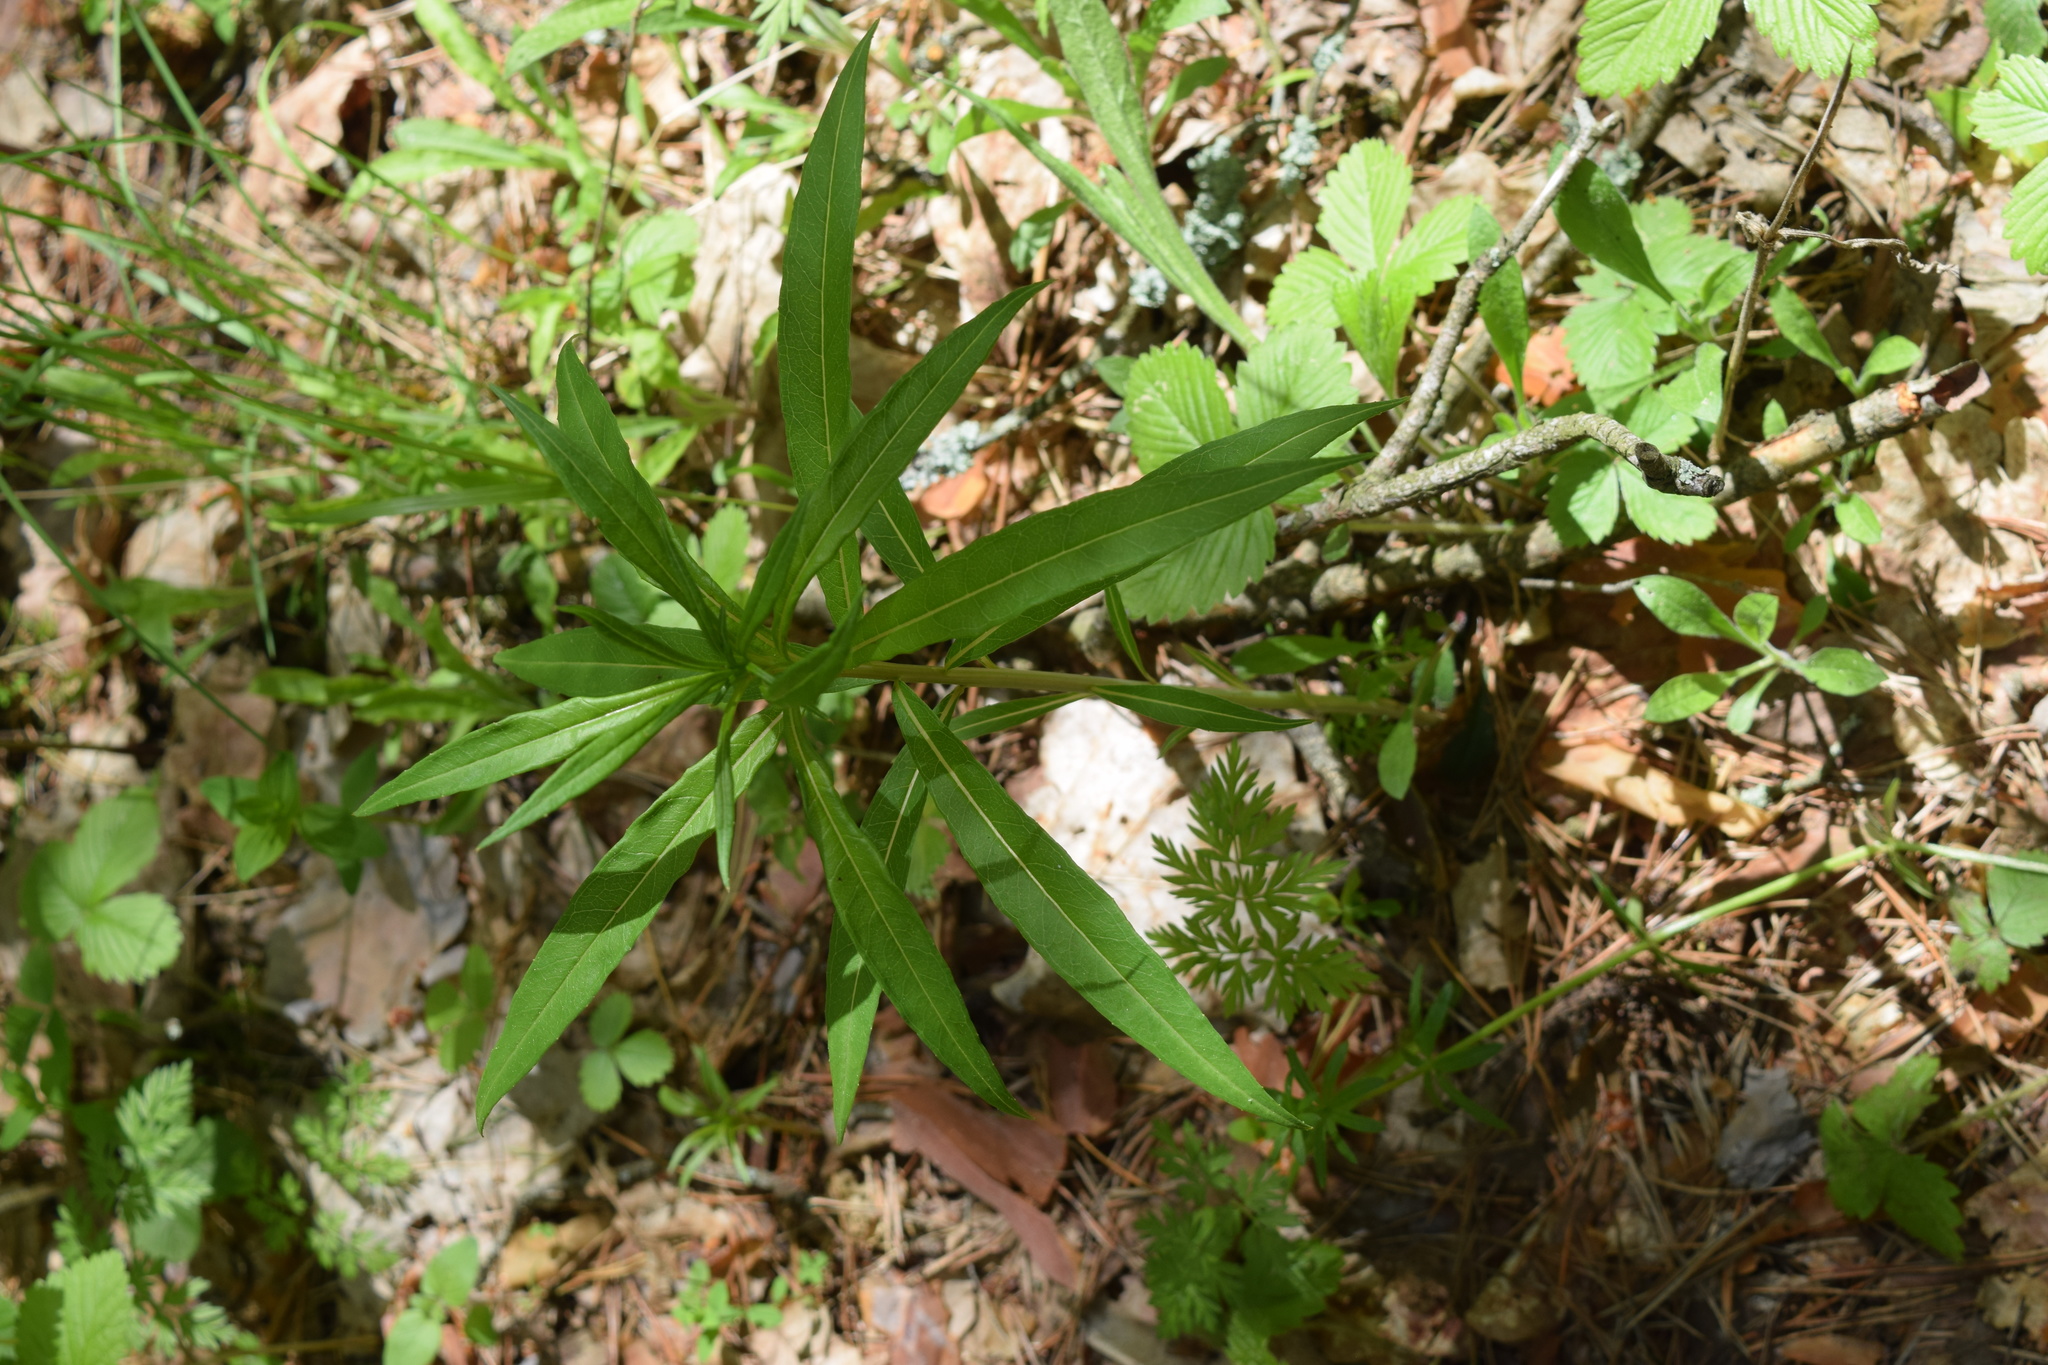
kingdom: Plantae
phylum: Tracheophyta
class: Magnoliopsida
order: Myrtales
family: Onagraceae
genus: Chamaenerion
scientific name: Chamaenerion angustifolium
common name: Fireweed
